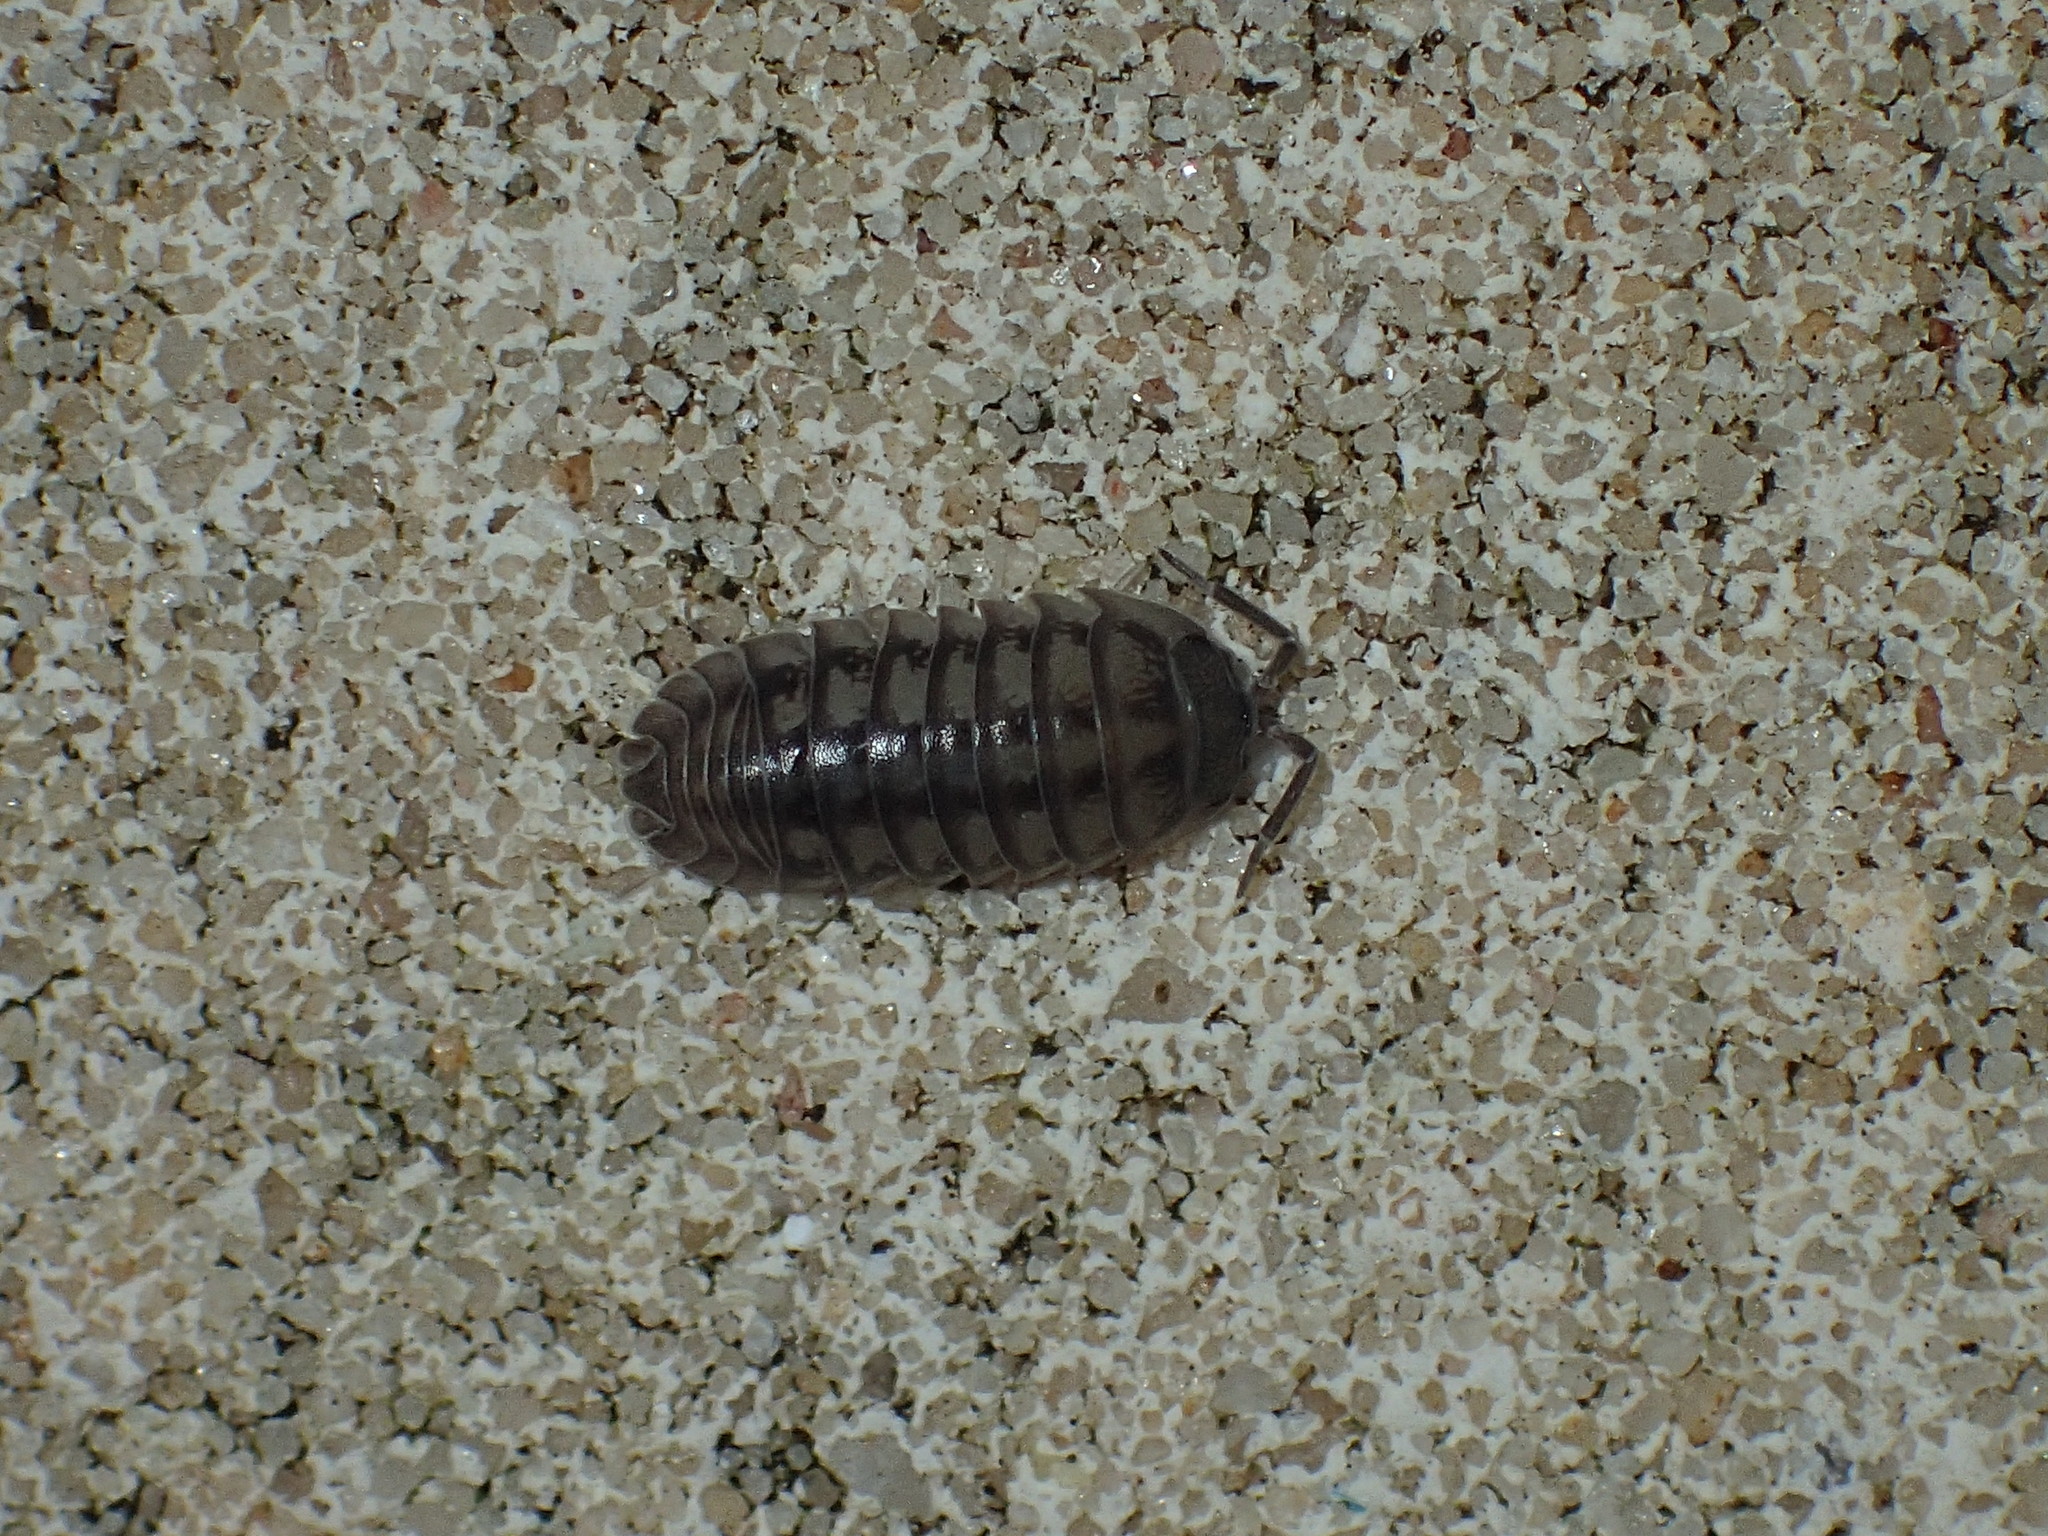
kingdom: Animalia
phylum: Arthropoda
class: Malacostraca
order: Isopoda
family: Armadillidiidae
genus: Armadillidium
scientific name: Armadillidium nasatum
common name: Isopod
